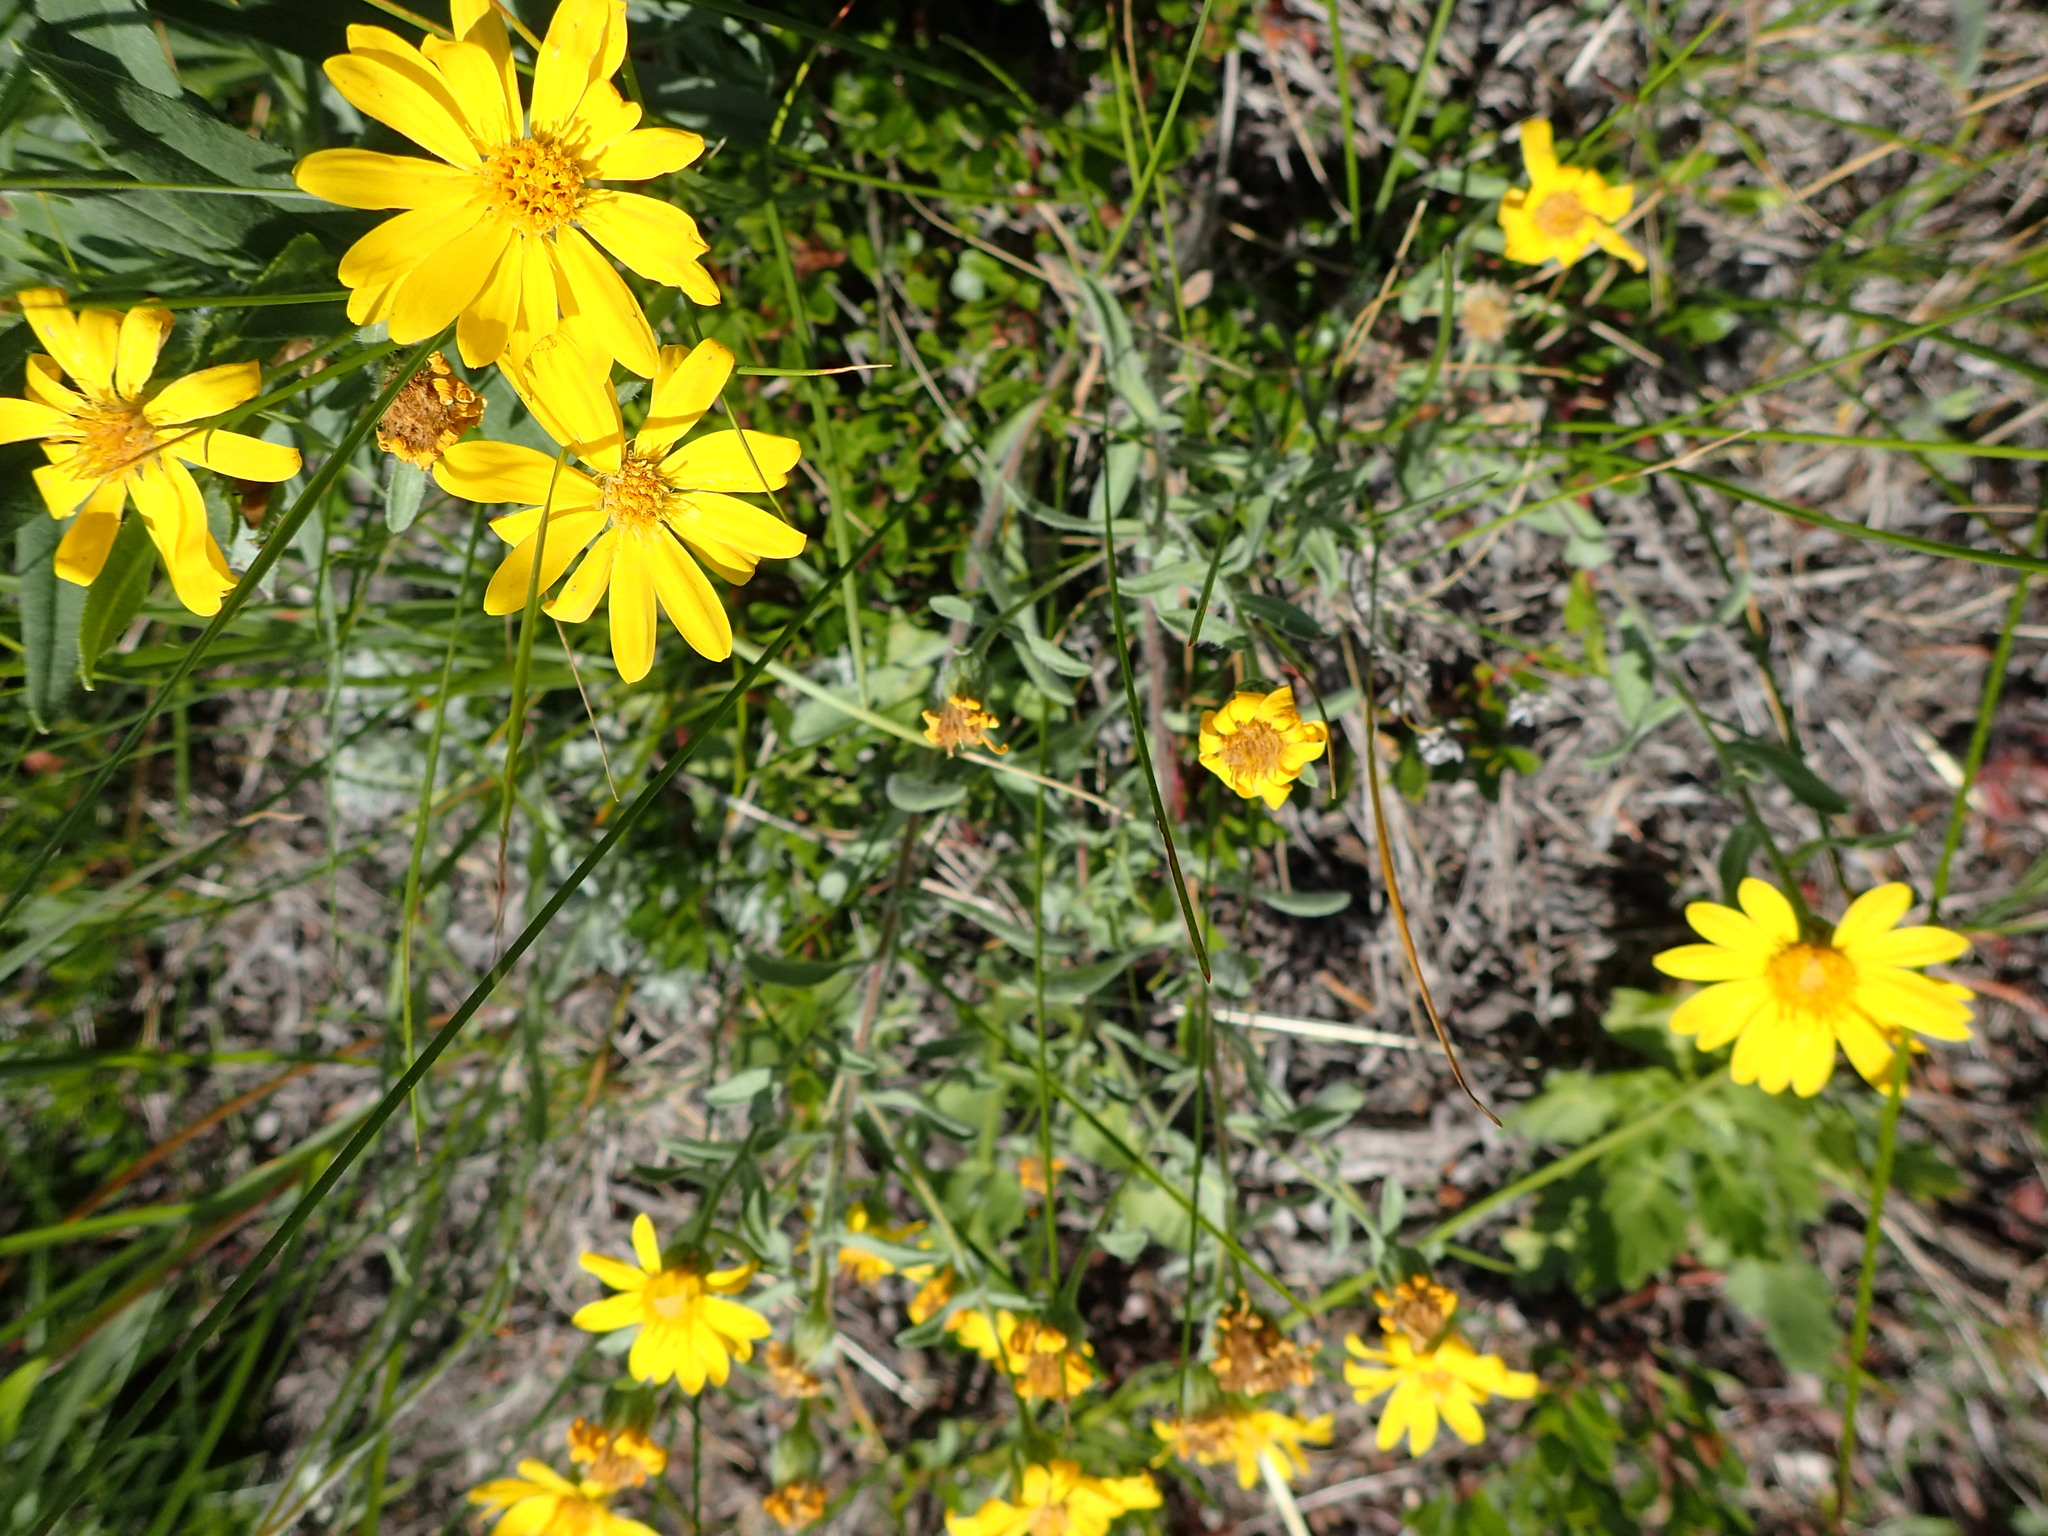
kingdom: Plantae
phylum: Tracheophyta
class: Magnoliopsida
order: Asterales
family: Asteraceae
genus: Heterotheca
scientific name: Heterotheca villosa
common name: Hairy false goldenaster
